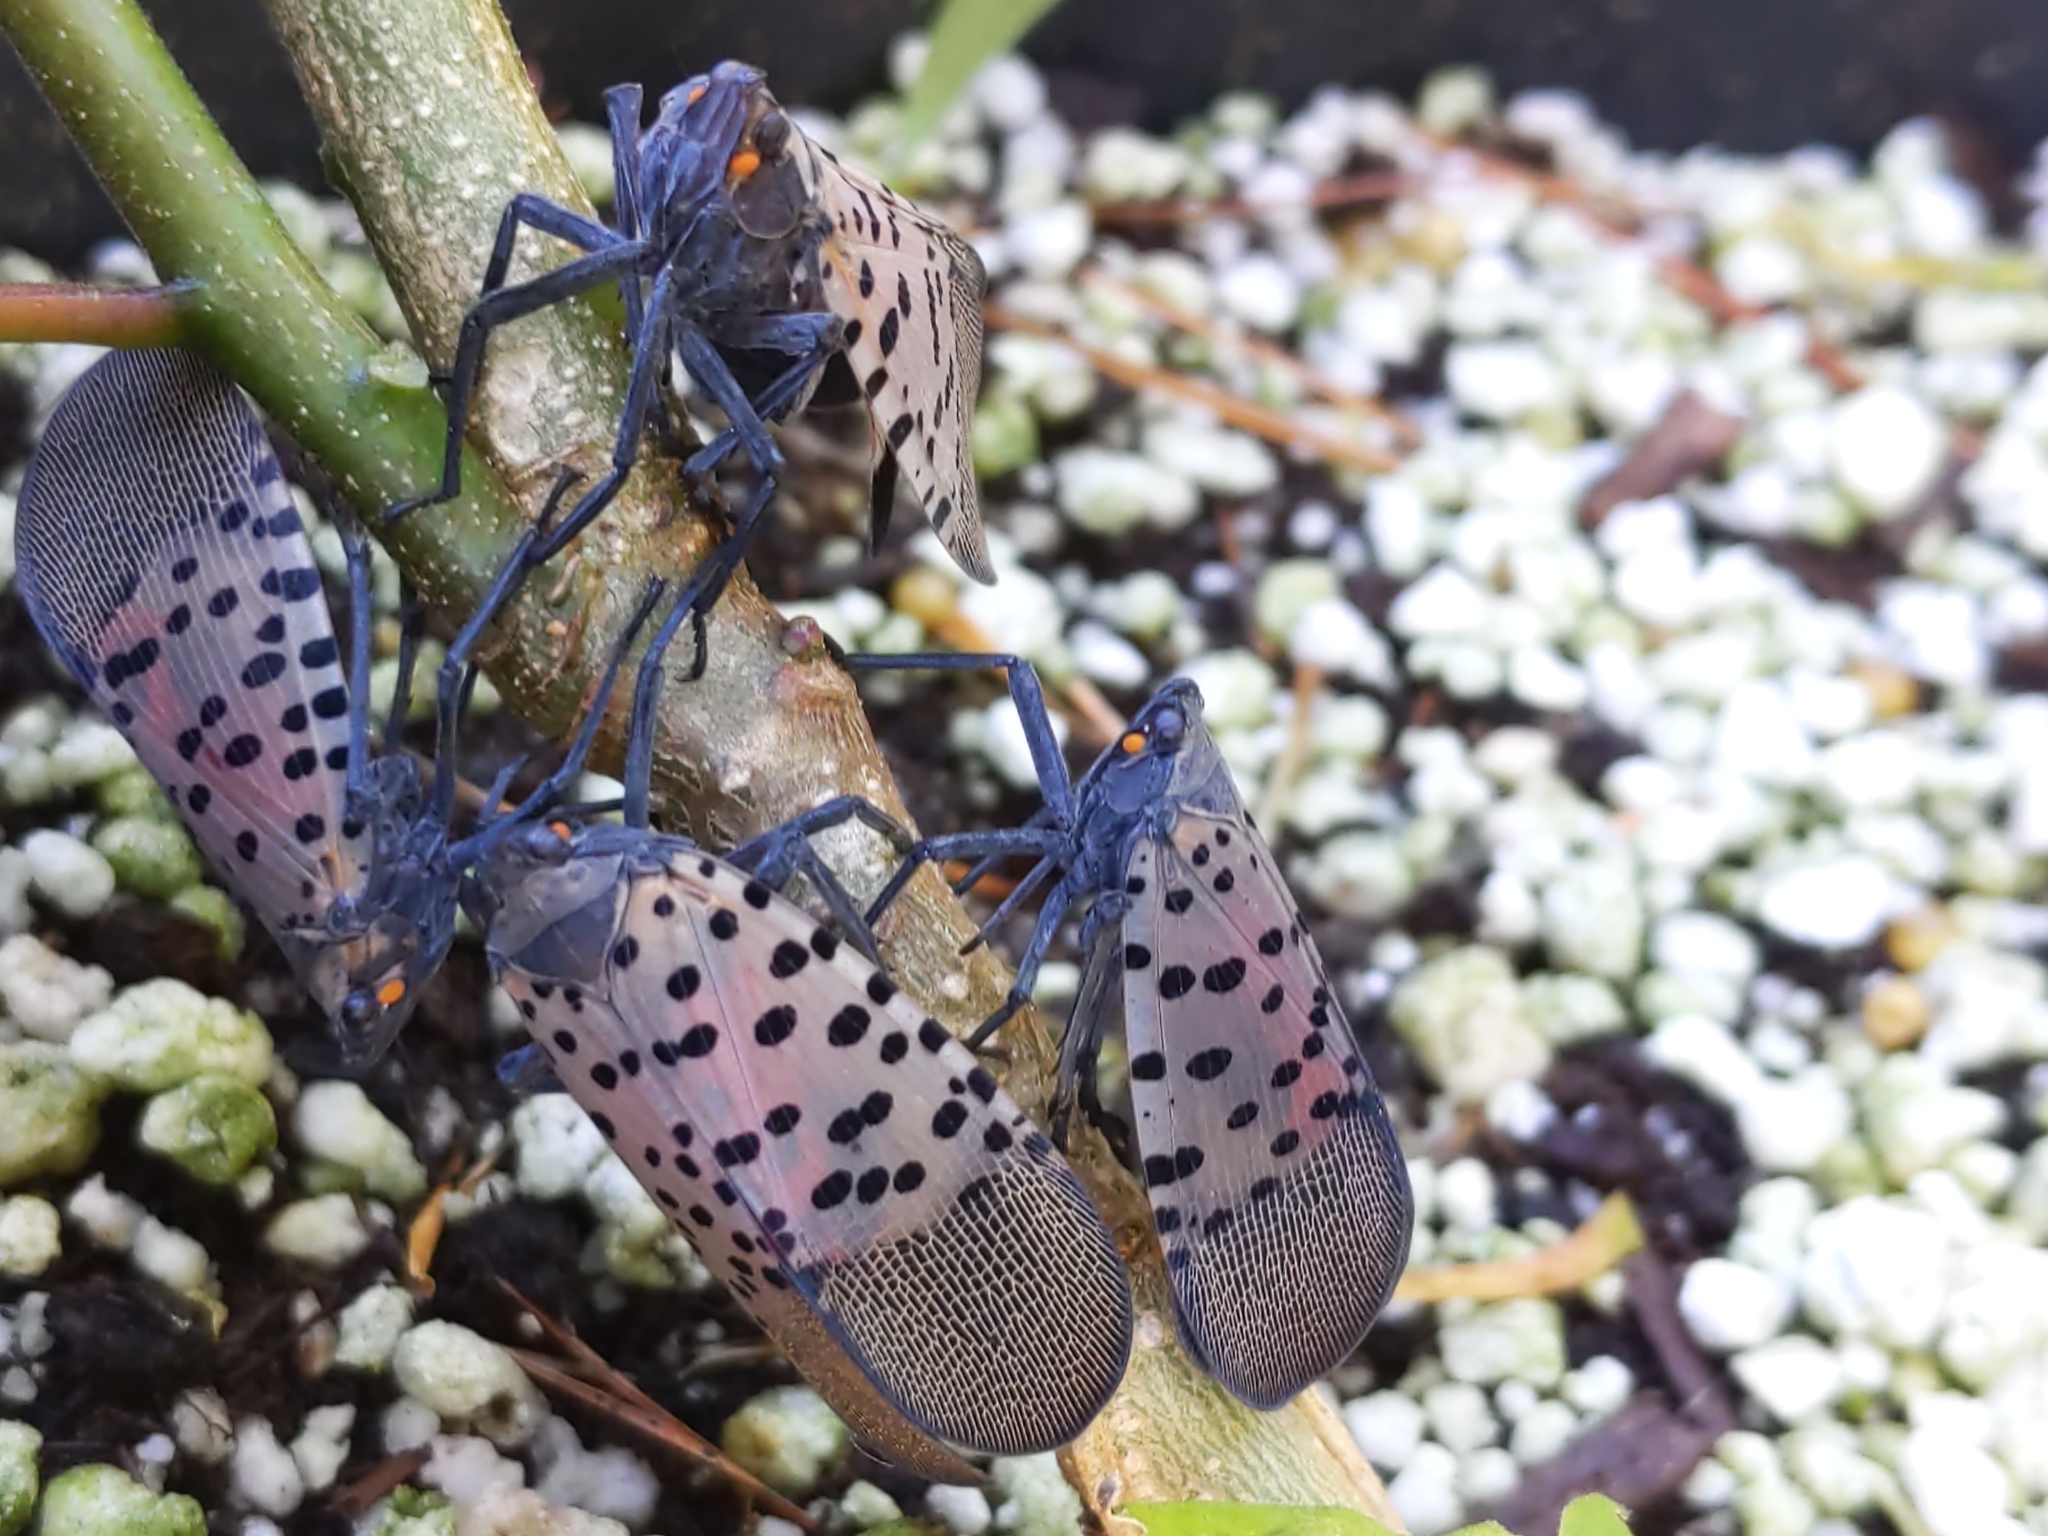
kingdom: Animalia
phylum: Arthropoda
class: Insecta
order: Hemiptera
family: Fulgoridae
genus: Lycorma
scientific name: Lycorma delicatula
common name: Spotted lanternfly
